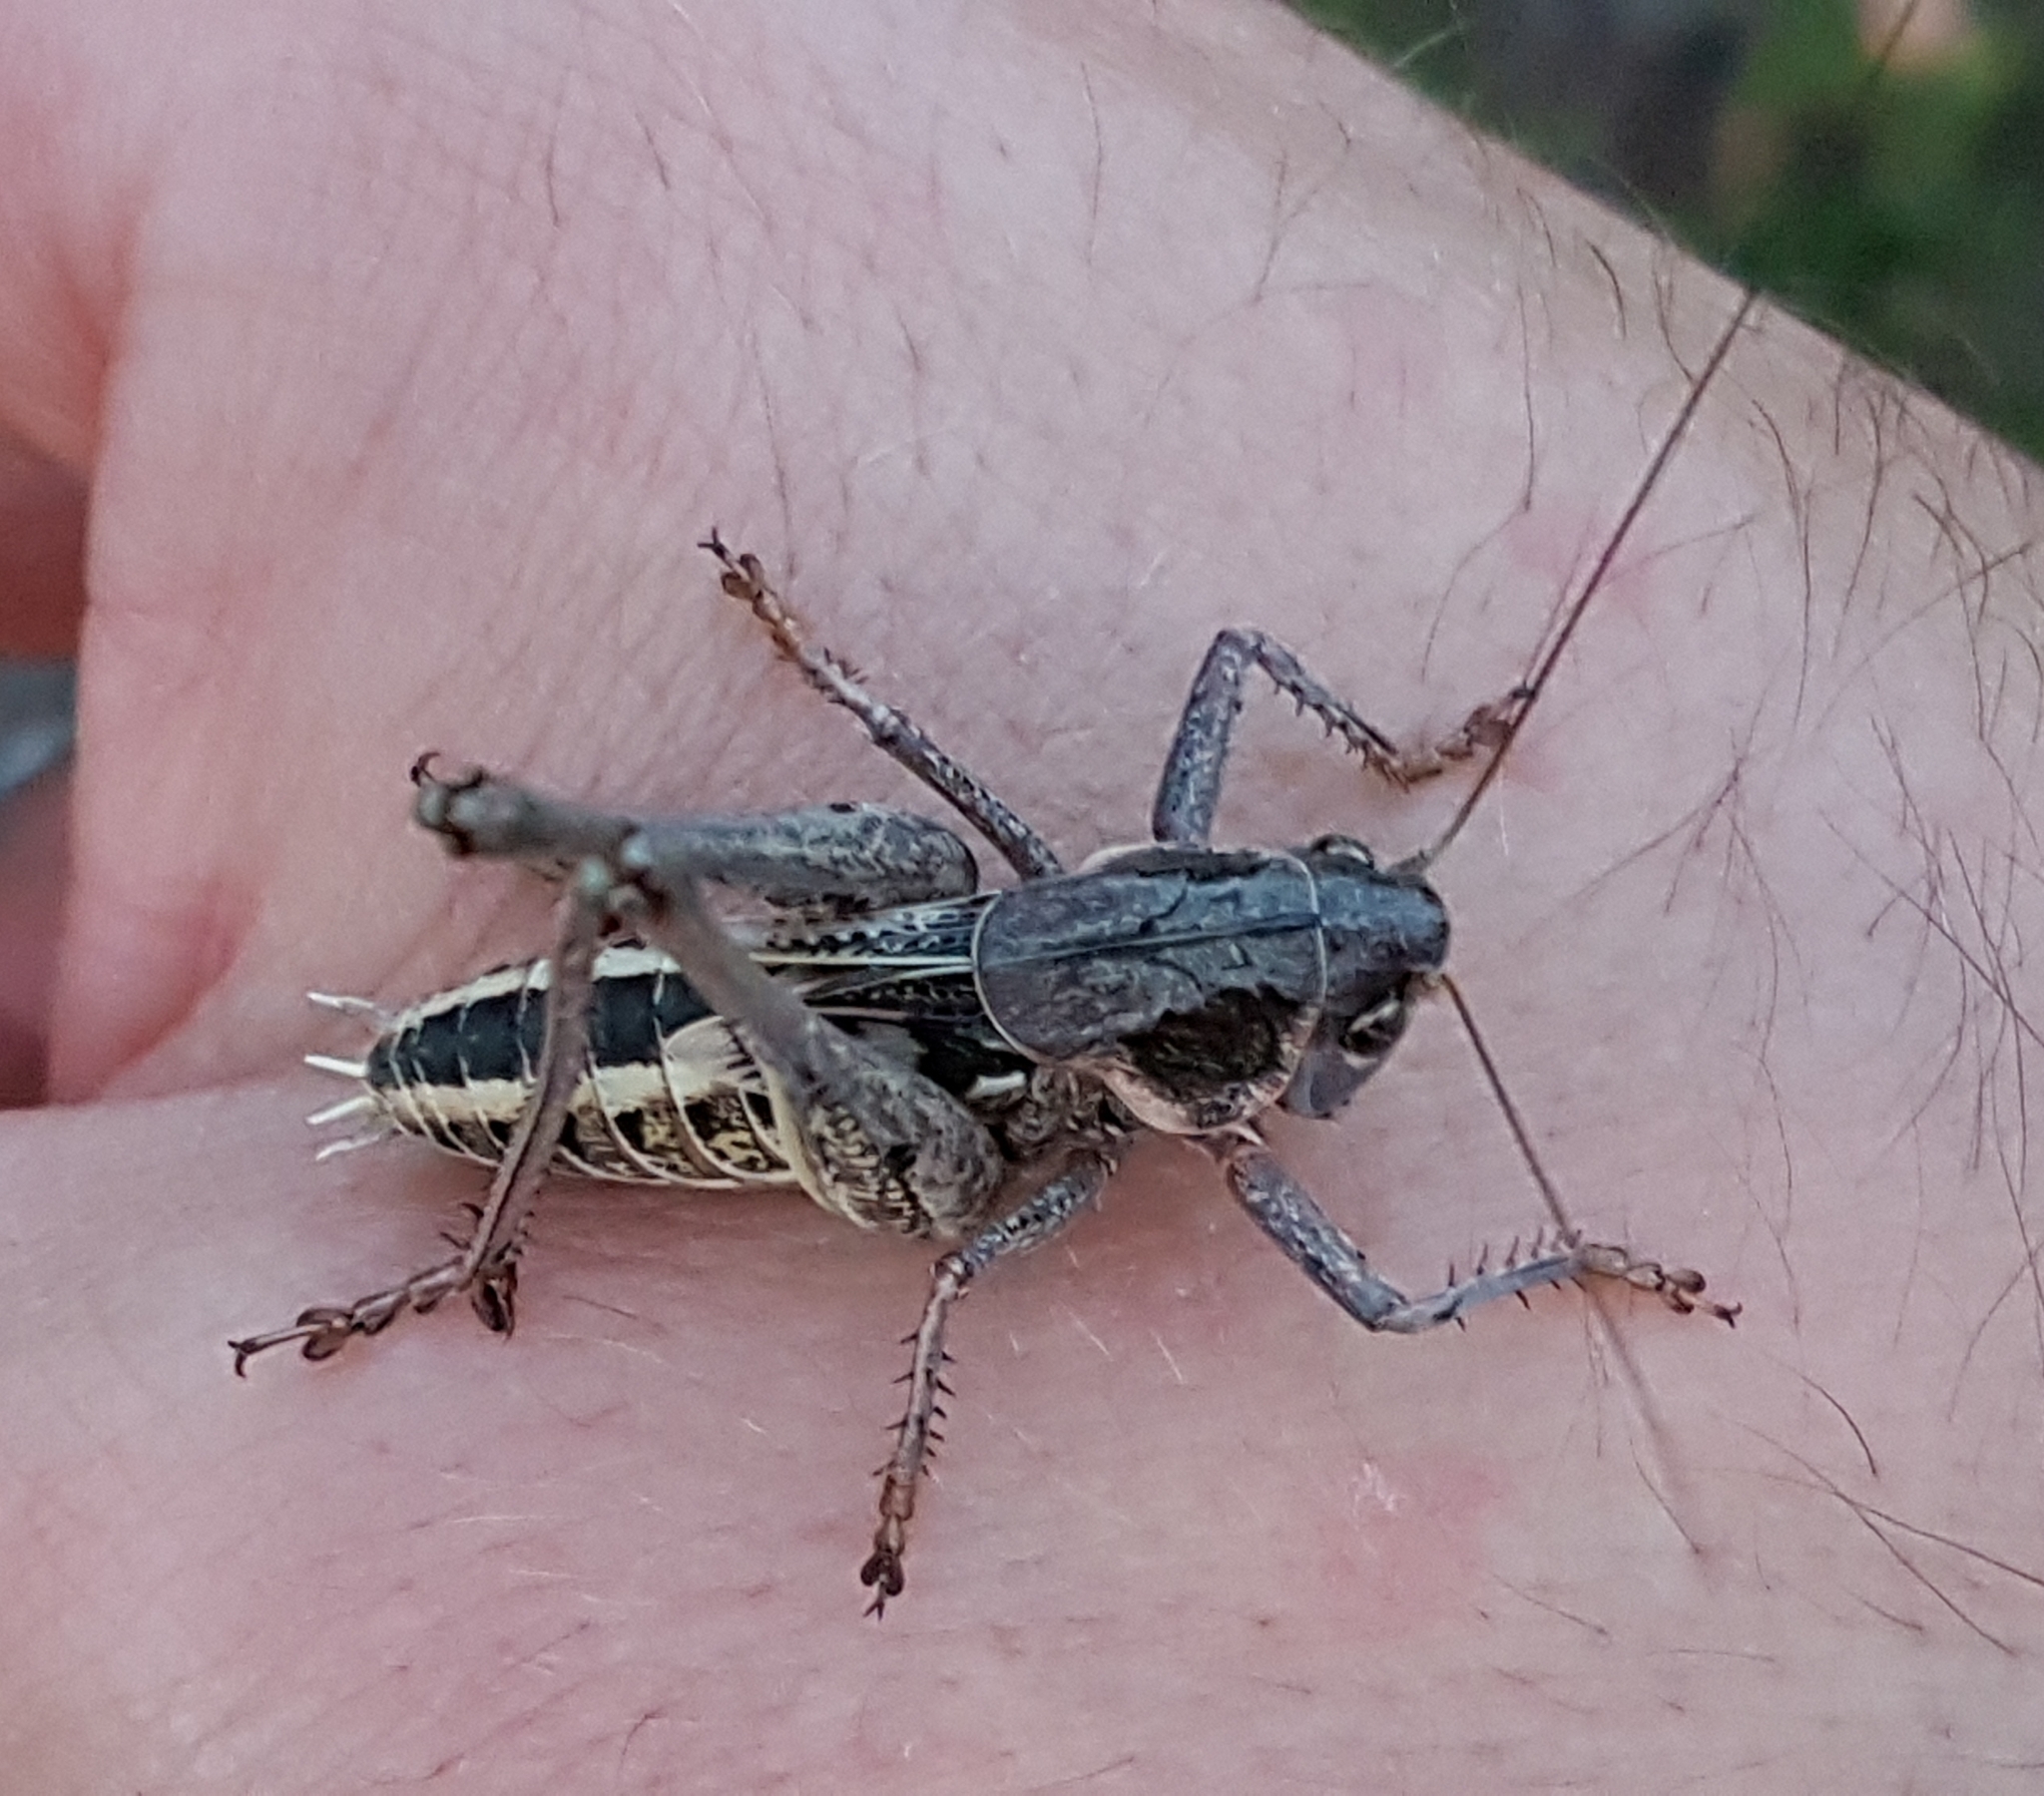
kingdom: Animalia
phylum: Arthropoda
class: Insecta
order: Orthoptera
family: Tettigoniidae
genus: Decticus
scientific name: Decticus albifrons
